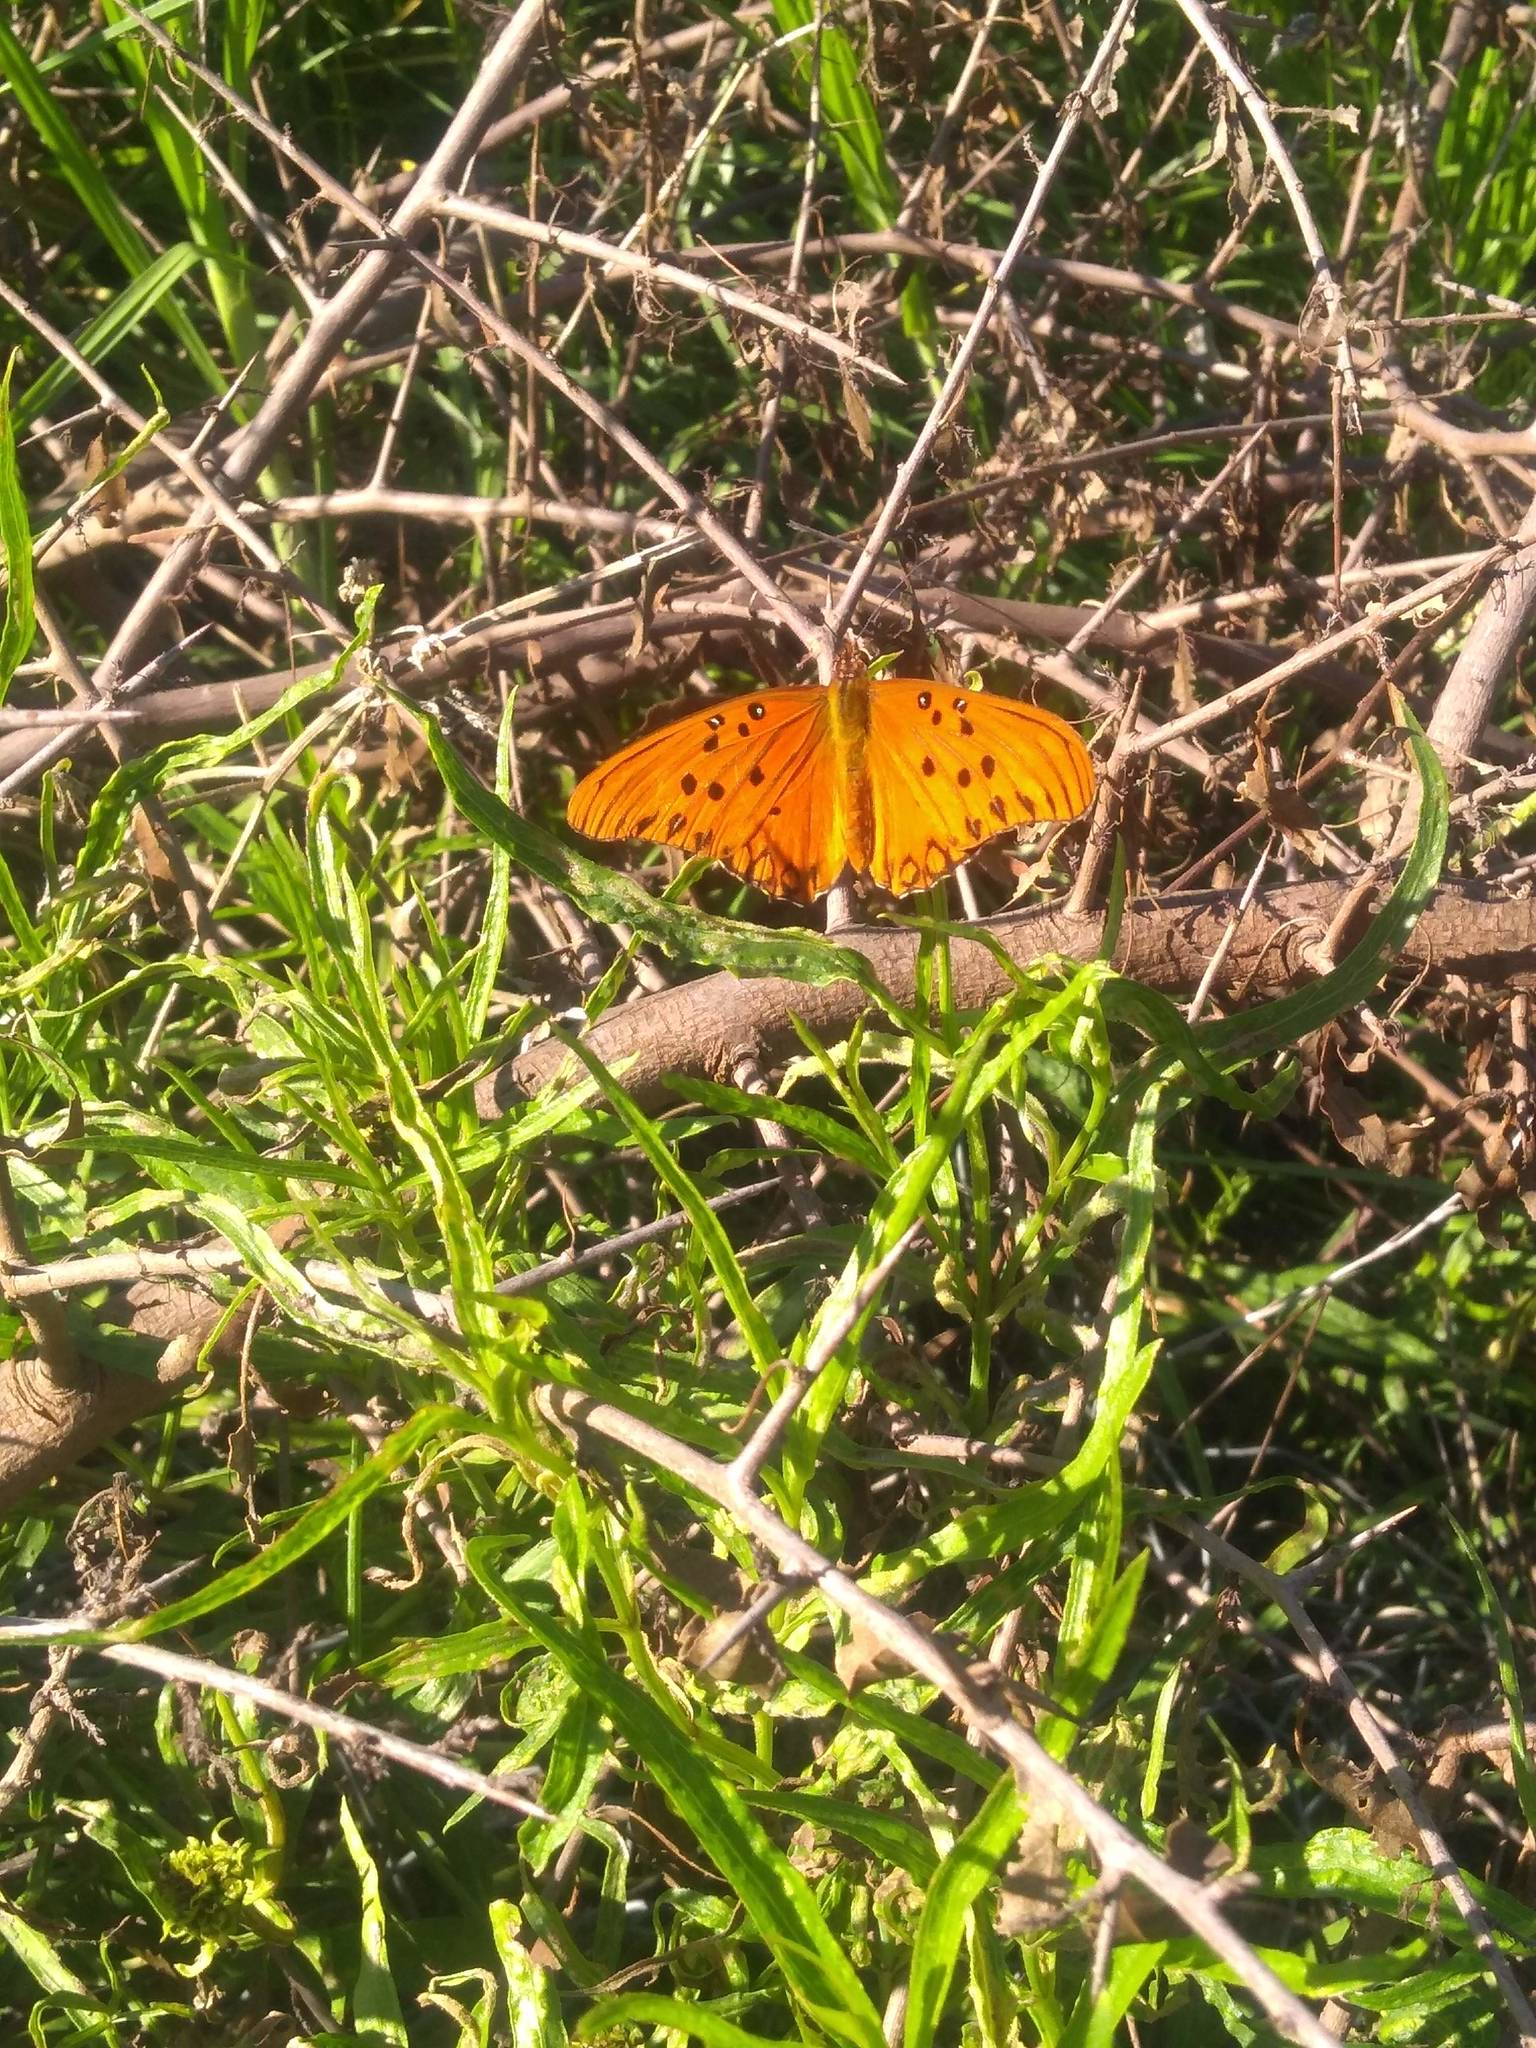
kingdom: Animalia
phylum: Arthropoda
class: Insecta
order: Lepidoptera
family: Nymphalidae
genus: Dione
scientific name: Dione vanillae
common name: Gulf fritillary
